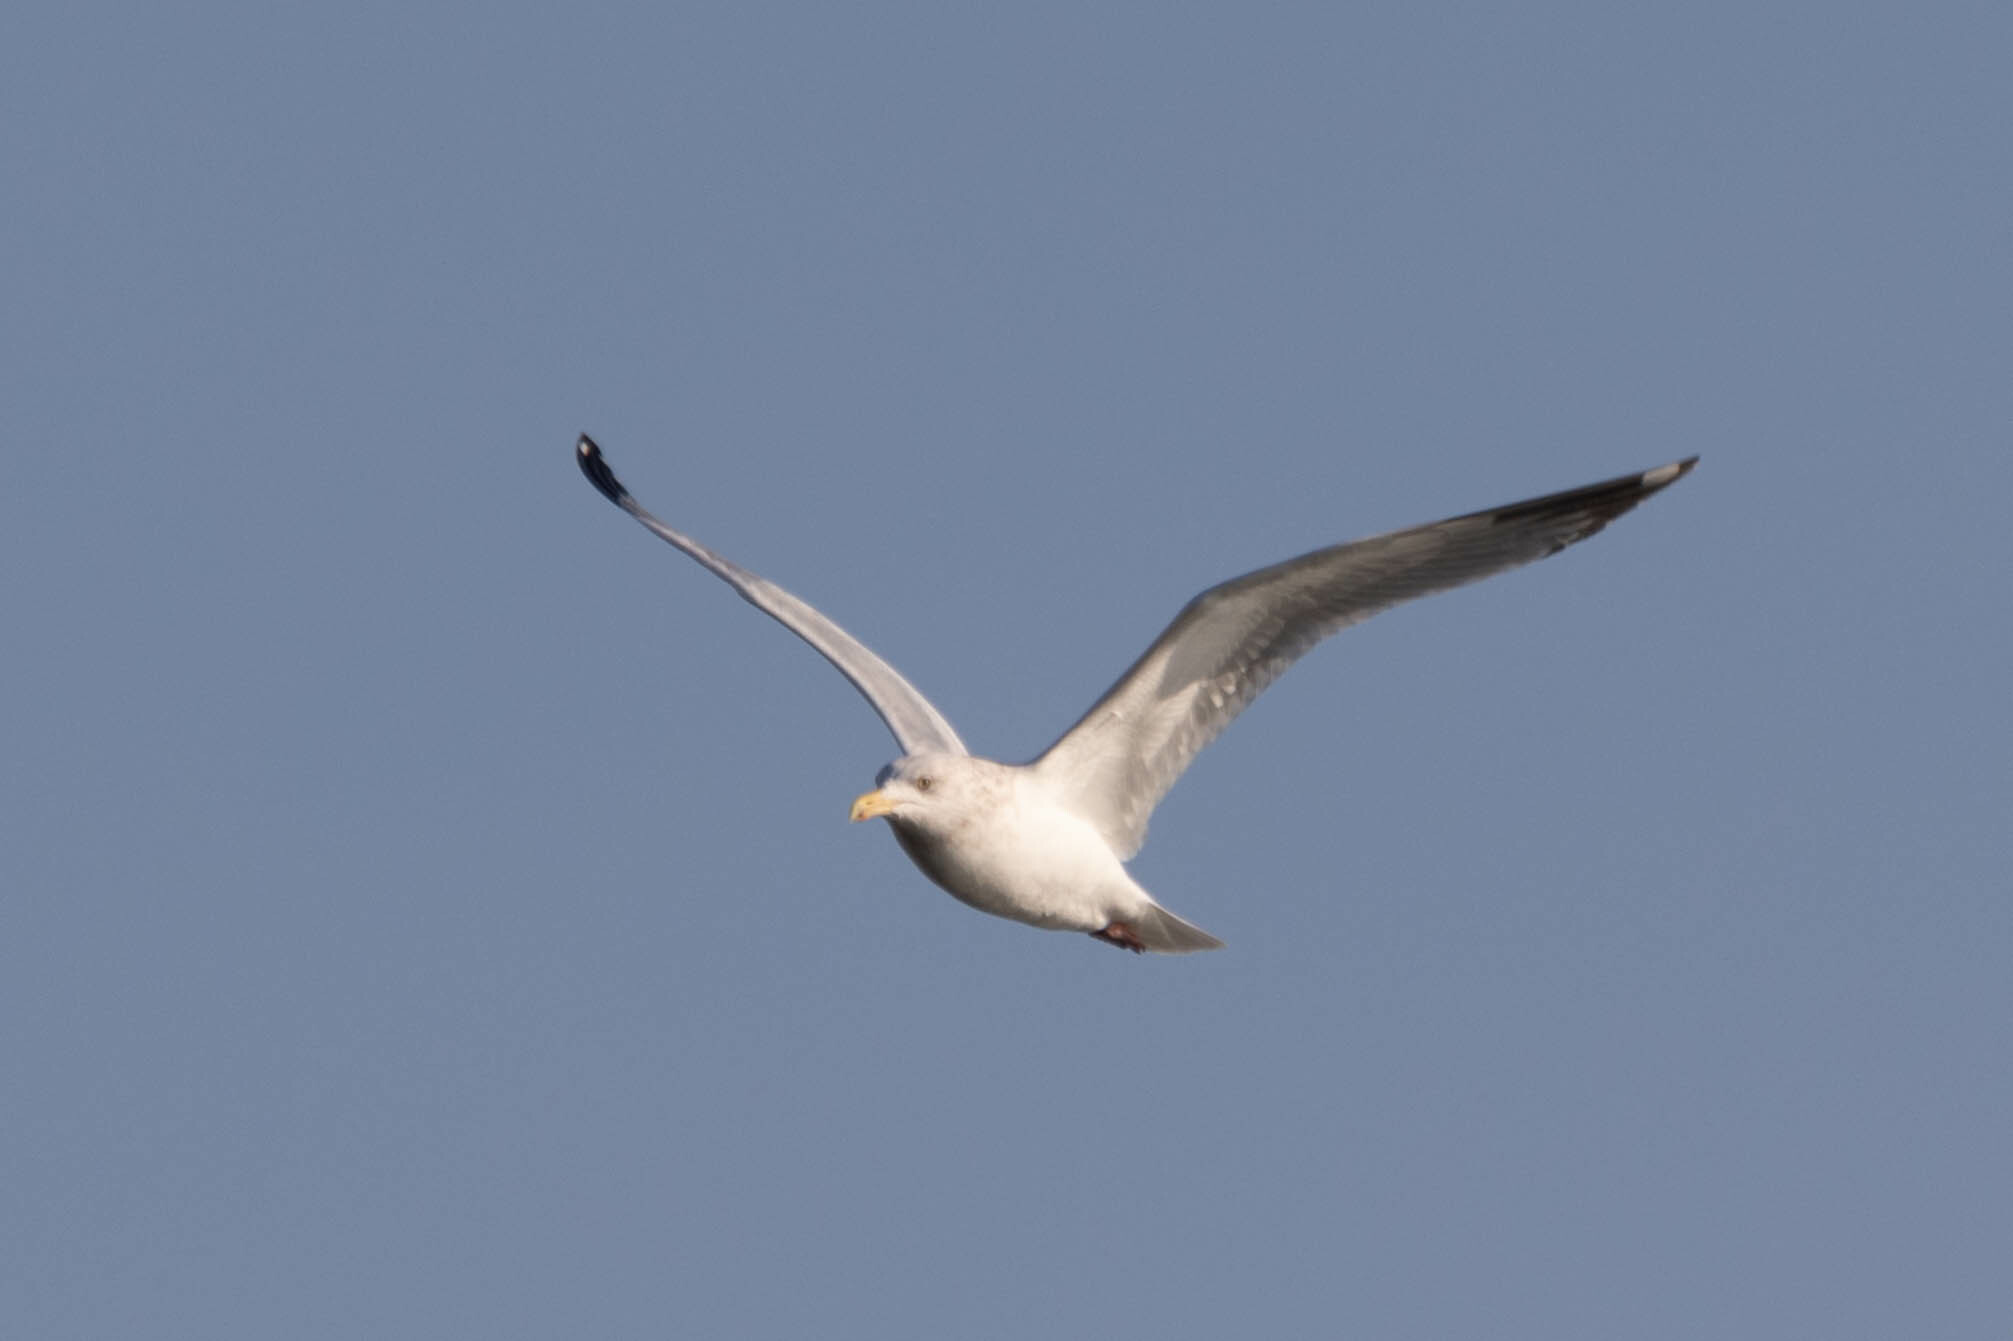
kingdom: Animalia
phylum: Chordata
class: Aves
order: Charadriiformes
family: Laridae
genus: Larus
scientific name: Larus argentatus
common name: Herring gull
